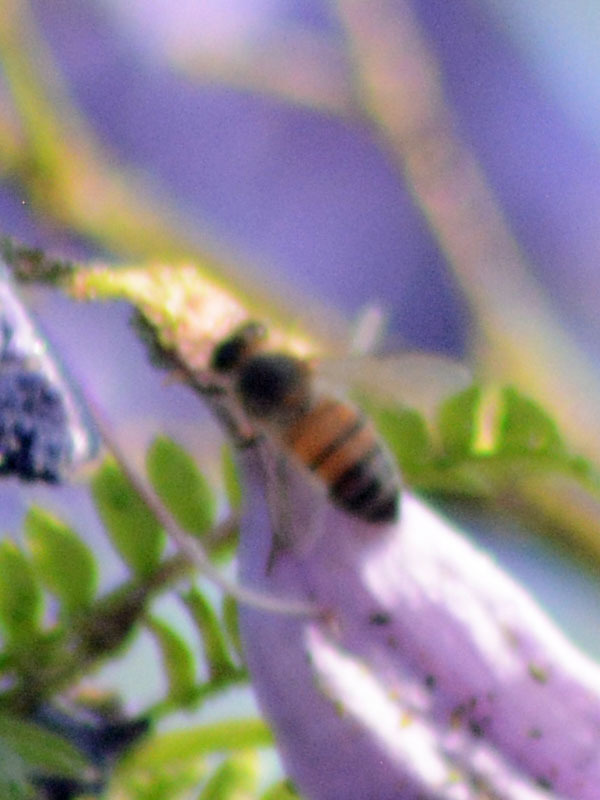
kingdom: Animalia
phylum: Arthropoda
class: Insecta
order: Hymenoptera
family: Apidae
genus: Apis
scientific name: Apis mellifera
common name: Honey bee
